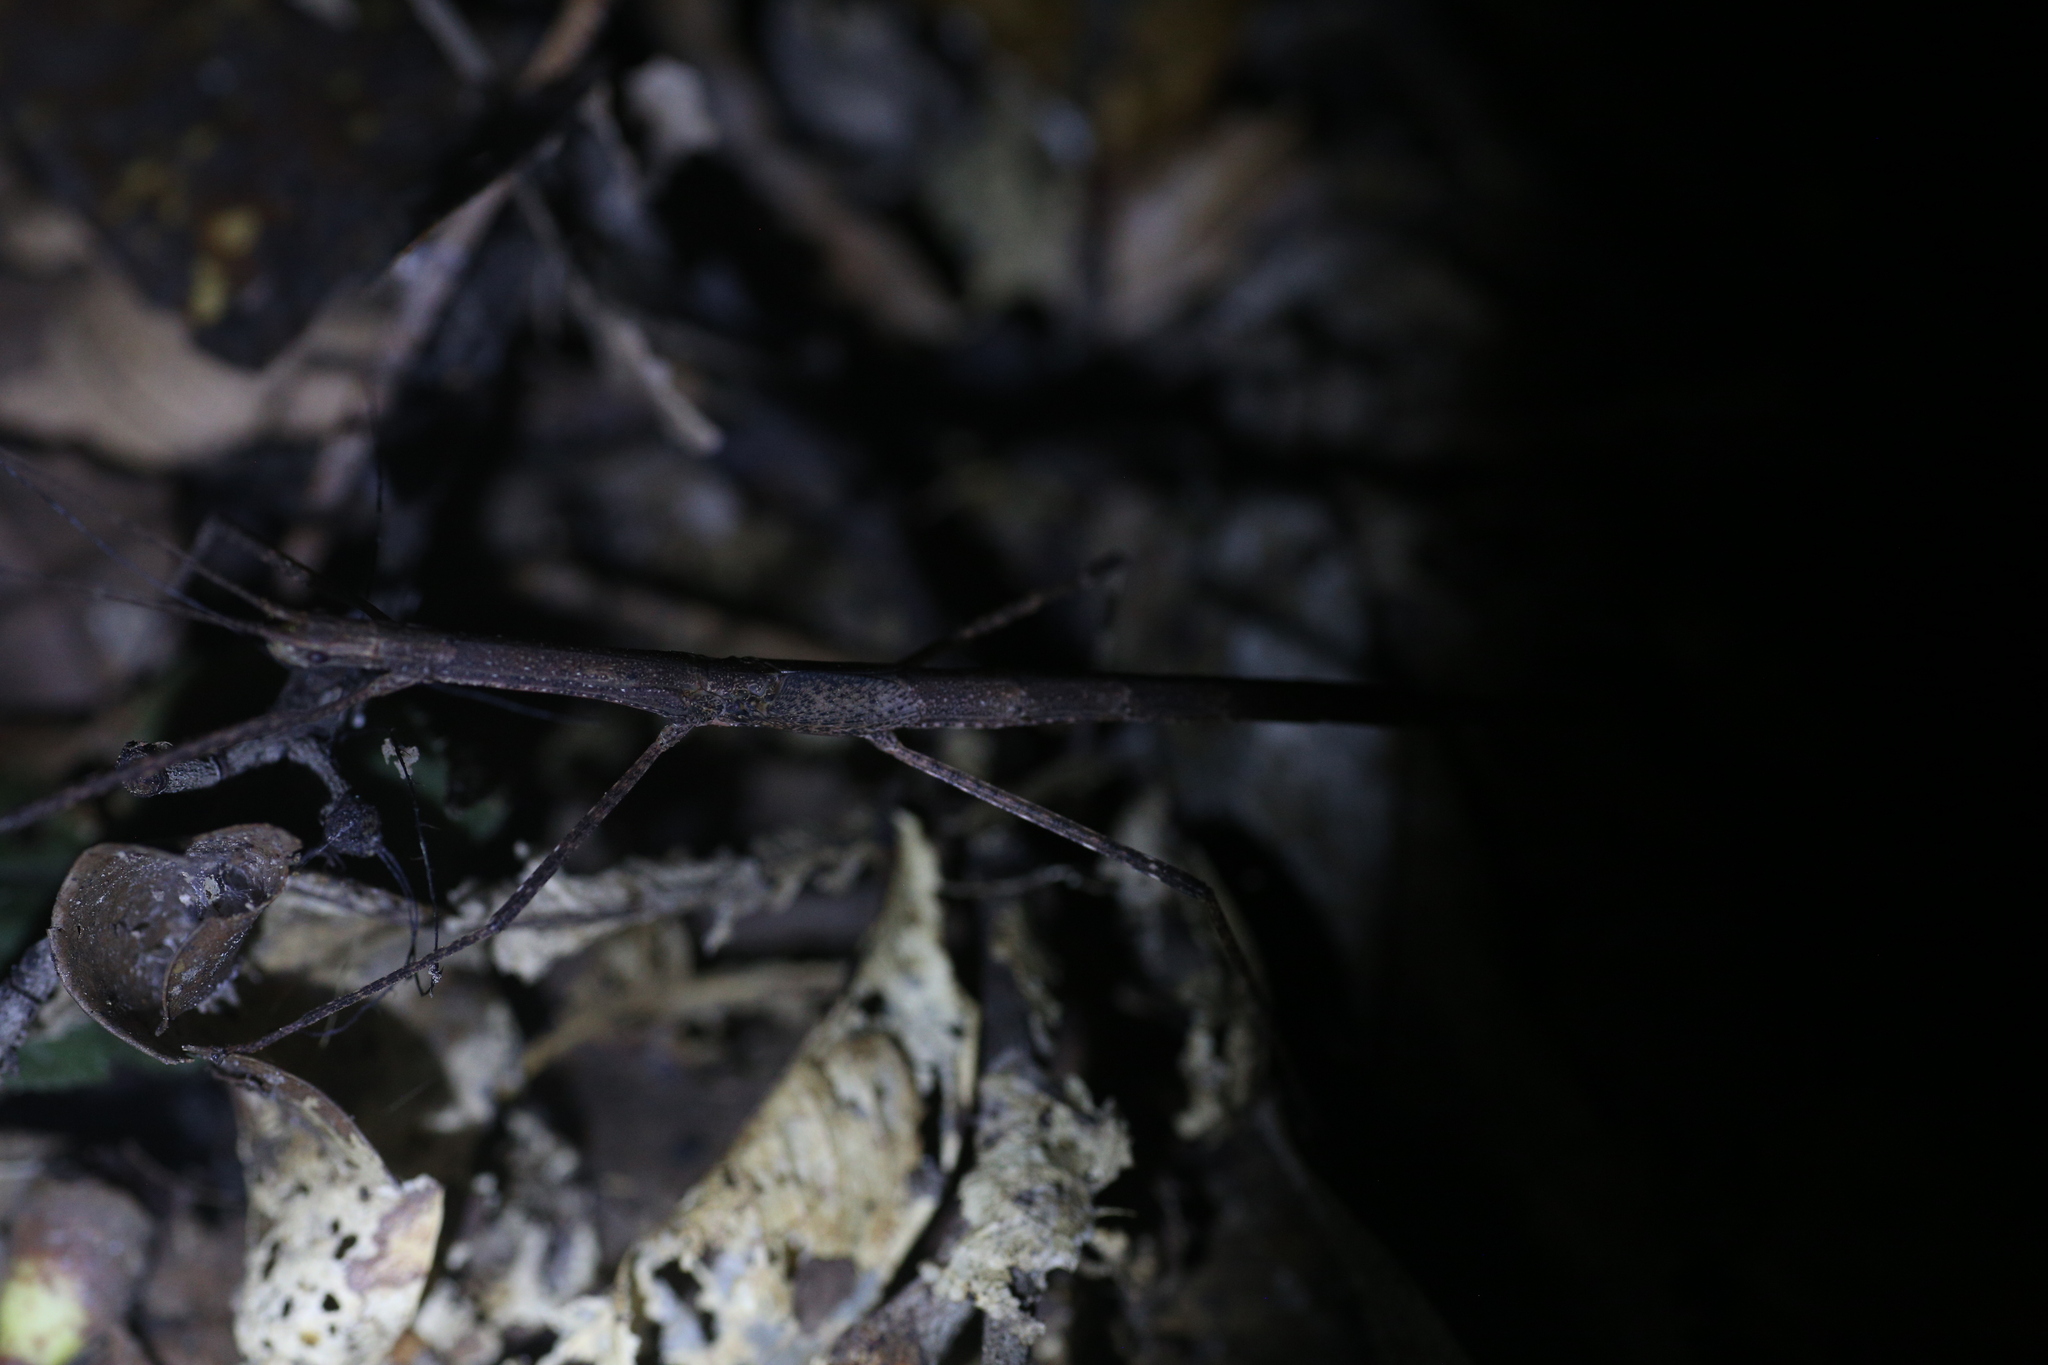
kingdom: Animalia
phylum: Arthropoda
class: Insecta
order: Phasmida
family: Lonchodidae
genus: Sipyloidea
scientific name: Sipyloidea larryi
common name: Hurricane larry stick-insect
